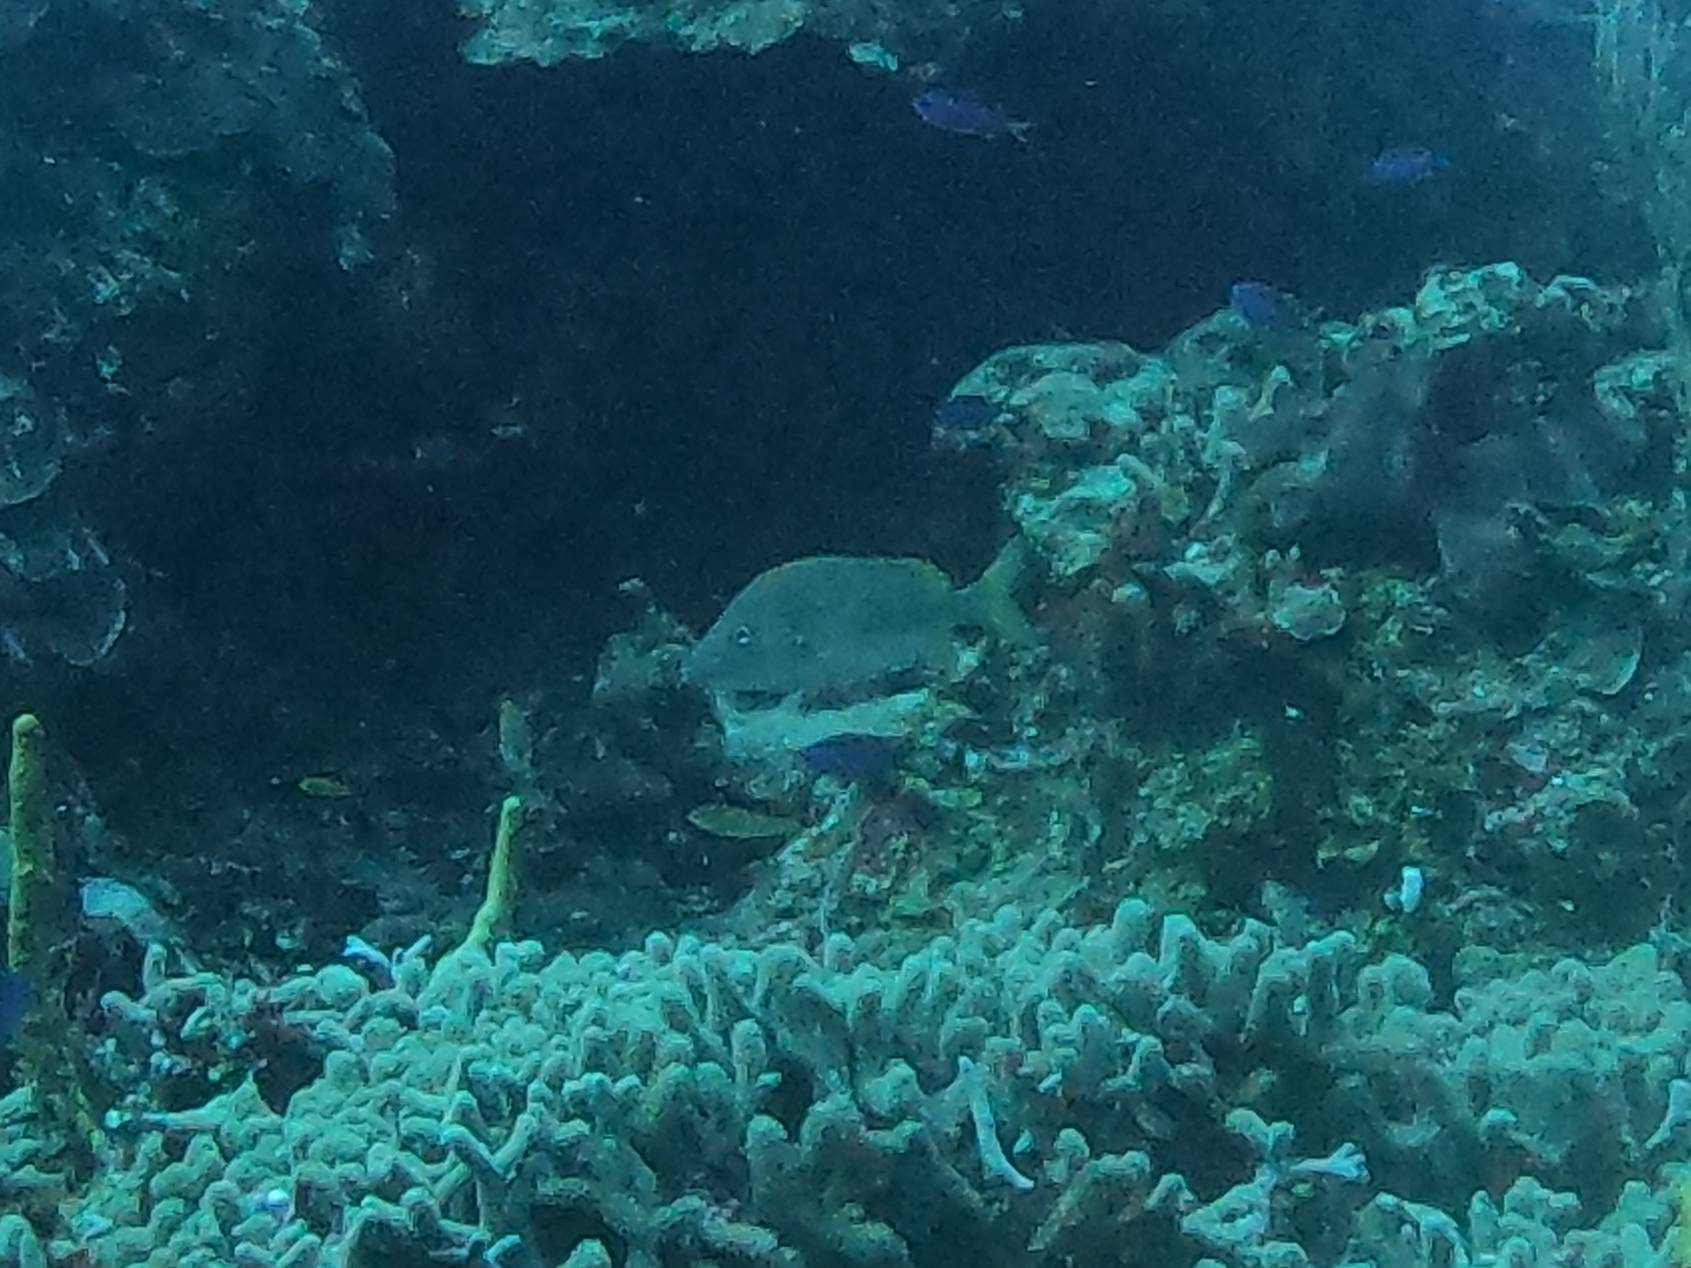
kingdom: Animalia
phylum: Chordata
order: Perciformes
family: Haemulidae
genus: Haemulon
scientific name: Haemulon plumierii
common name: White grunt
